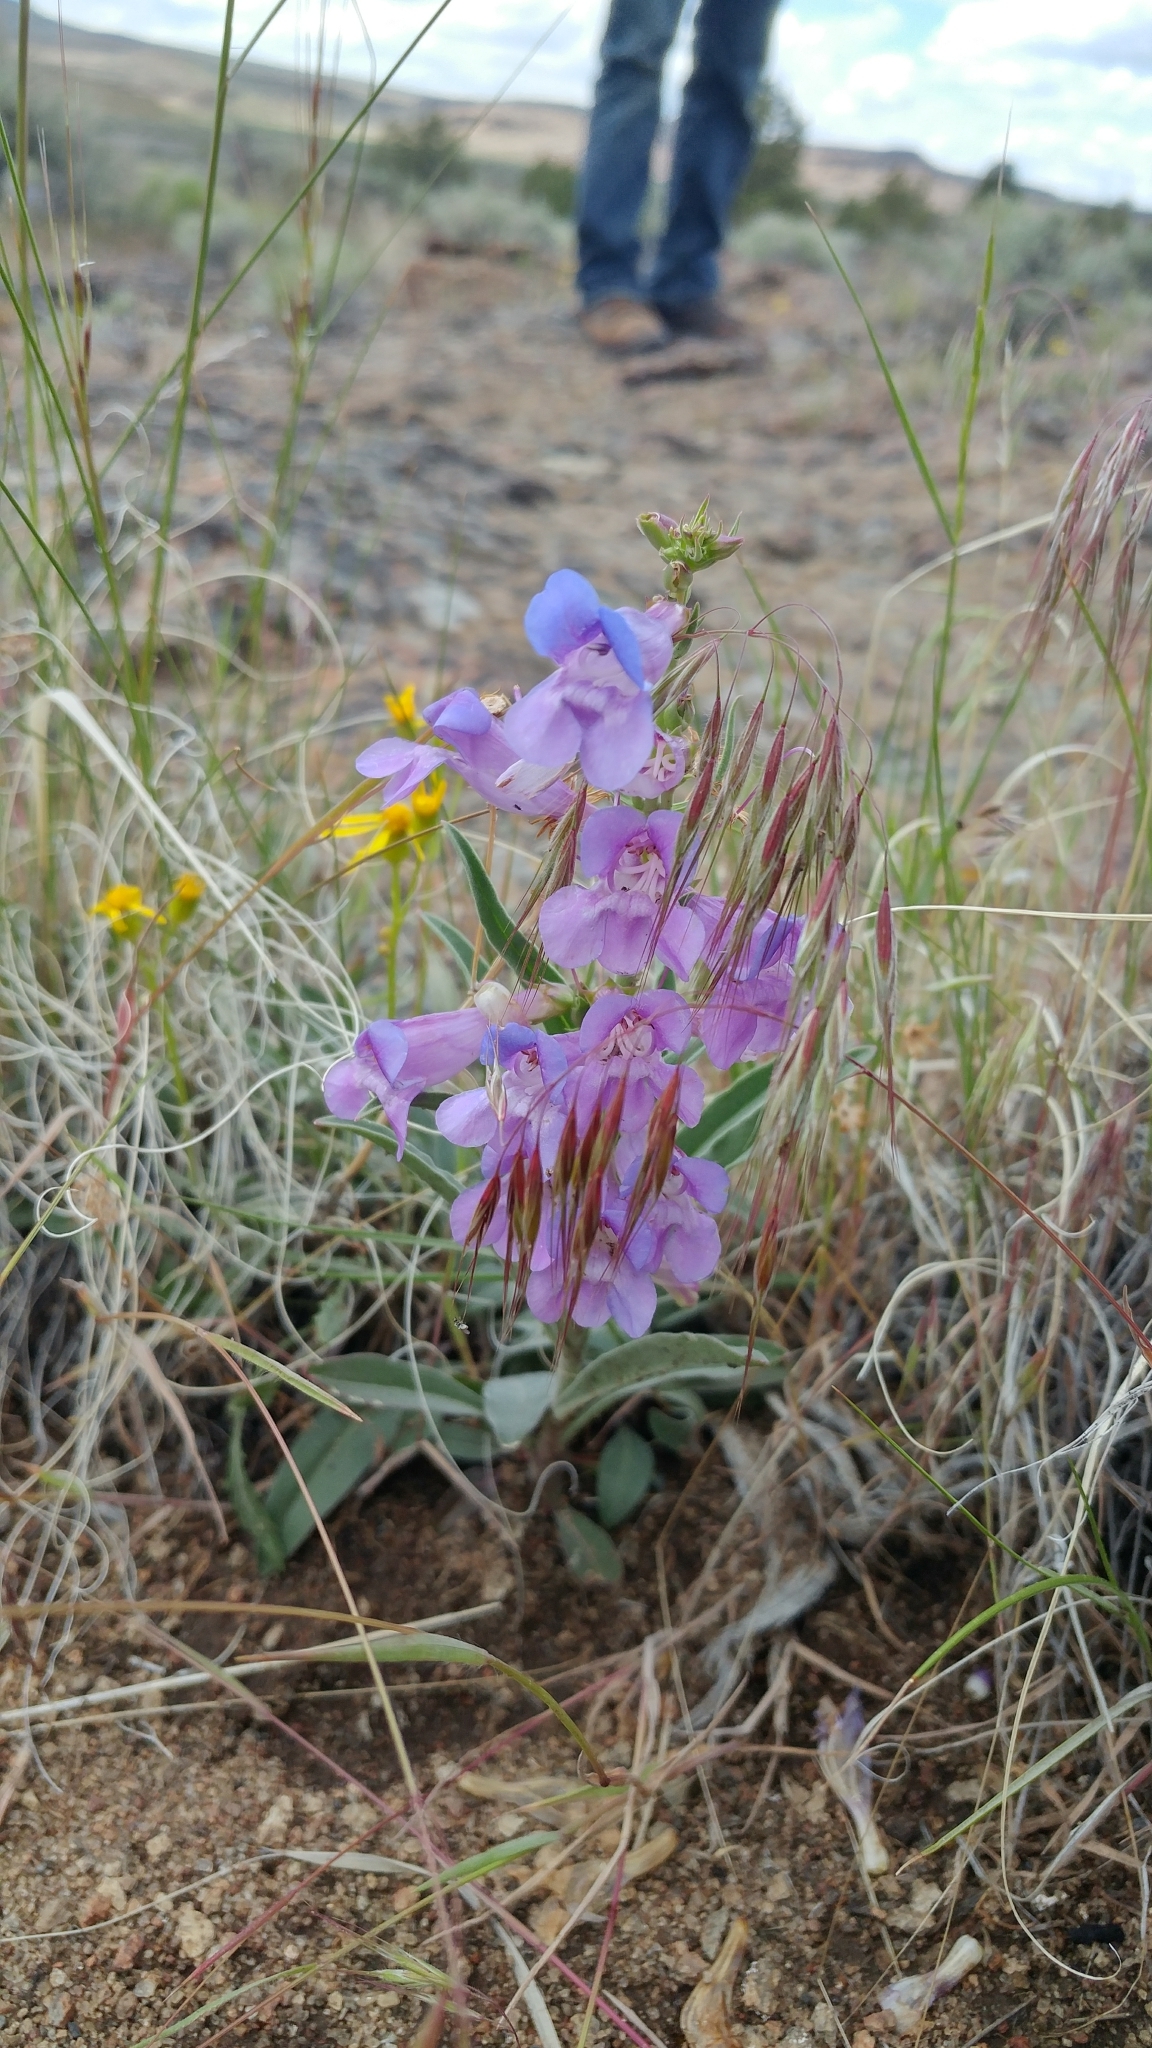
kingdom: Plantae
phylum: Tracheophyta
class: Magnoliopsida
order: Lamiales
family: Plantaginaceae
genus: Penstemon
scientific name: Penstemon speciosus
